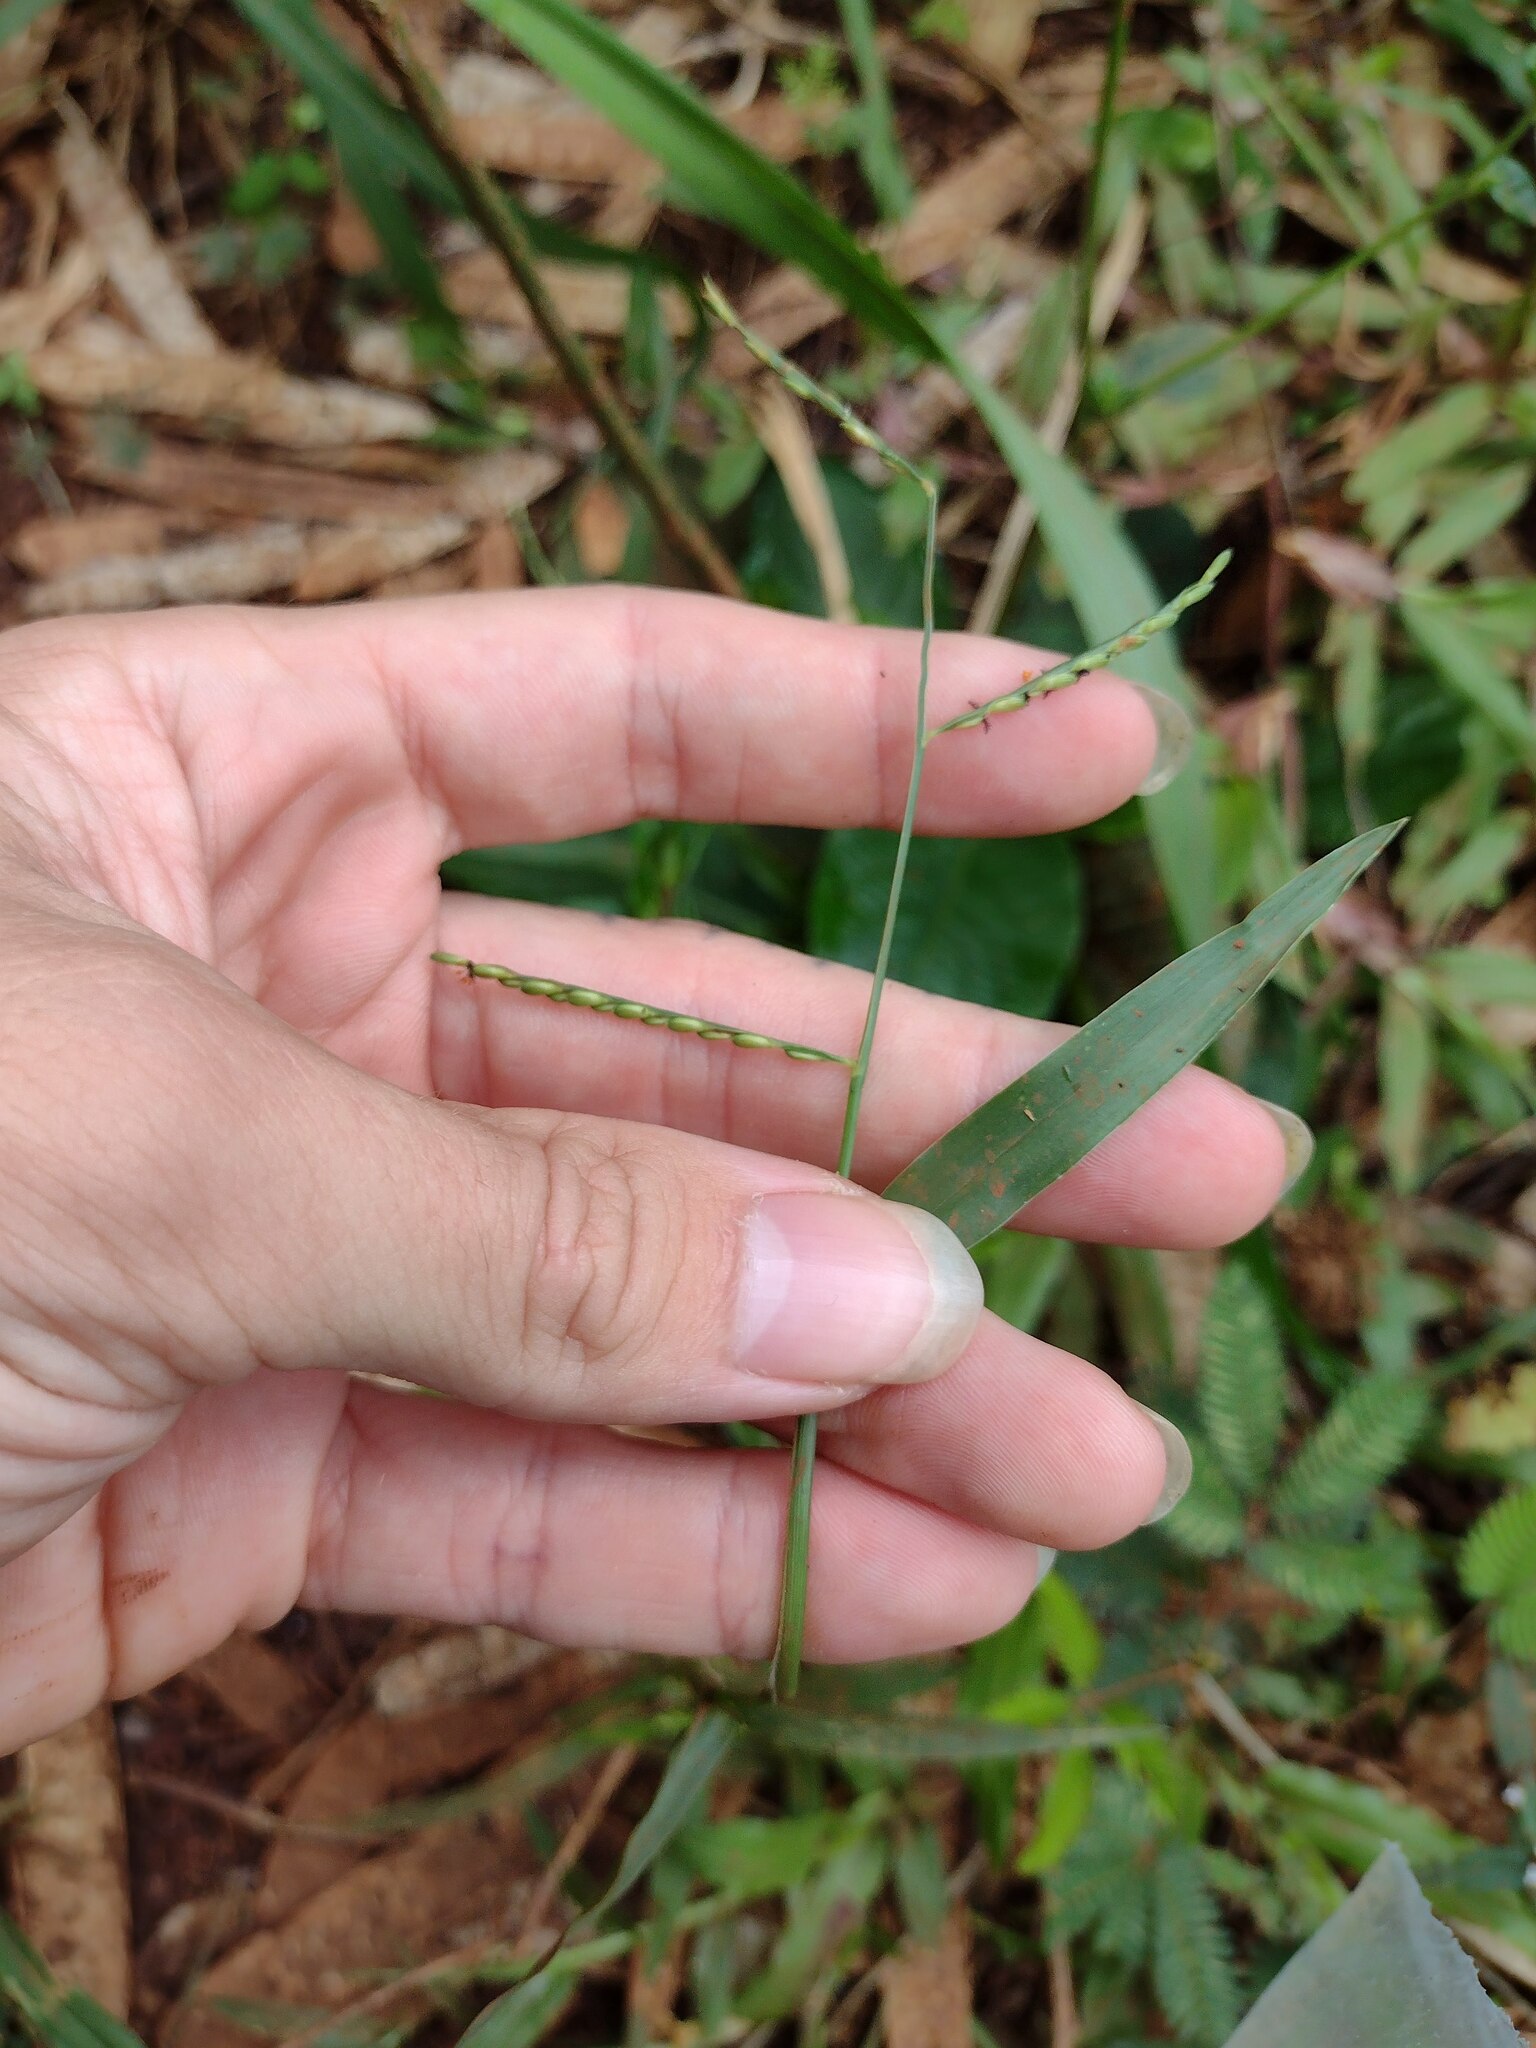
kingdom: Plantae
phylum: Tracheophyta
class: Liliopsida
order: Poales
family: Poaceae
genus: Urochloa
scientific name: Urochloa distachyos
